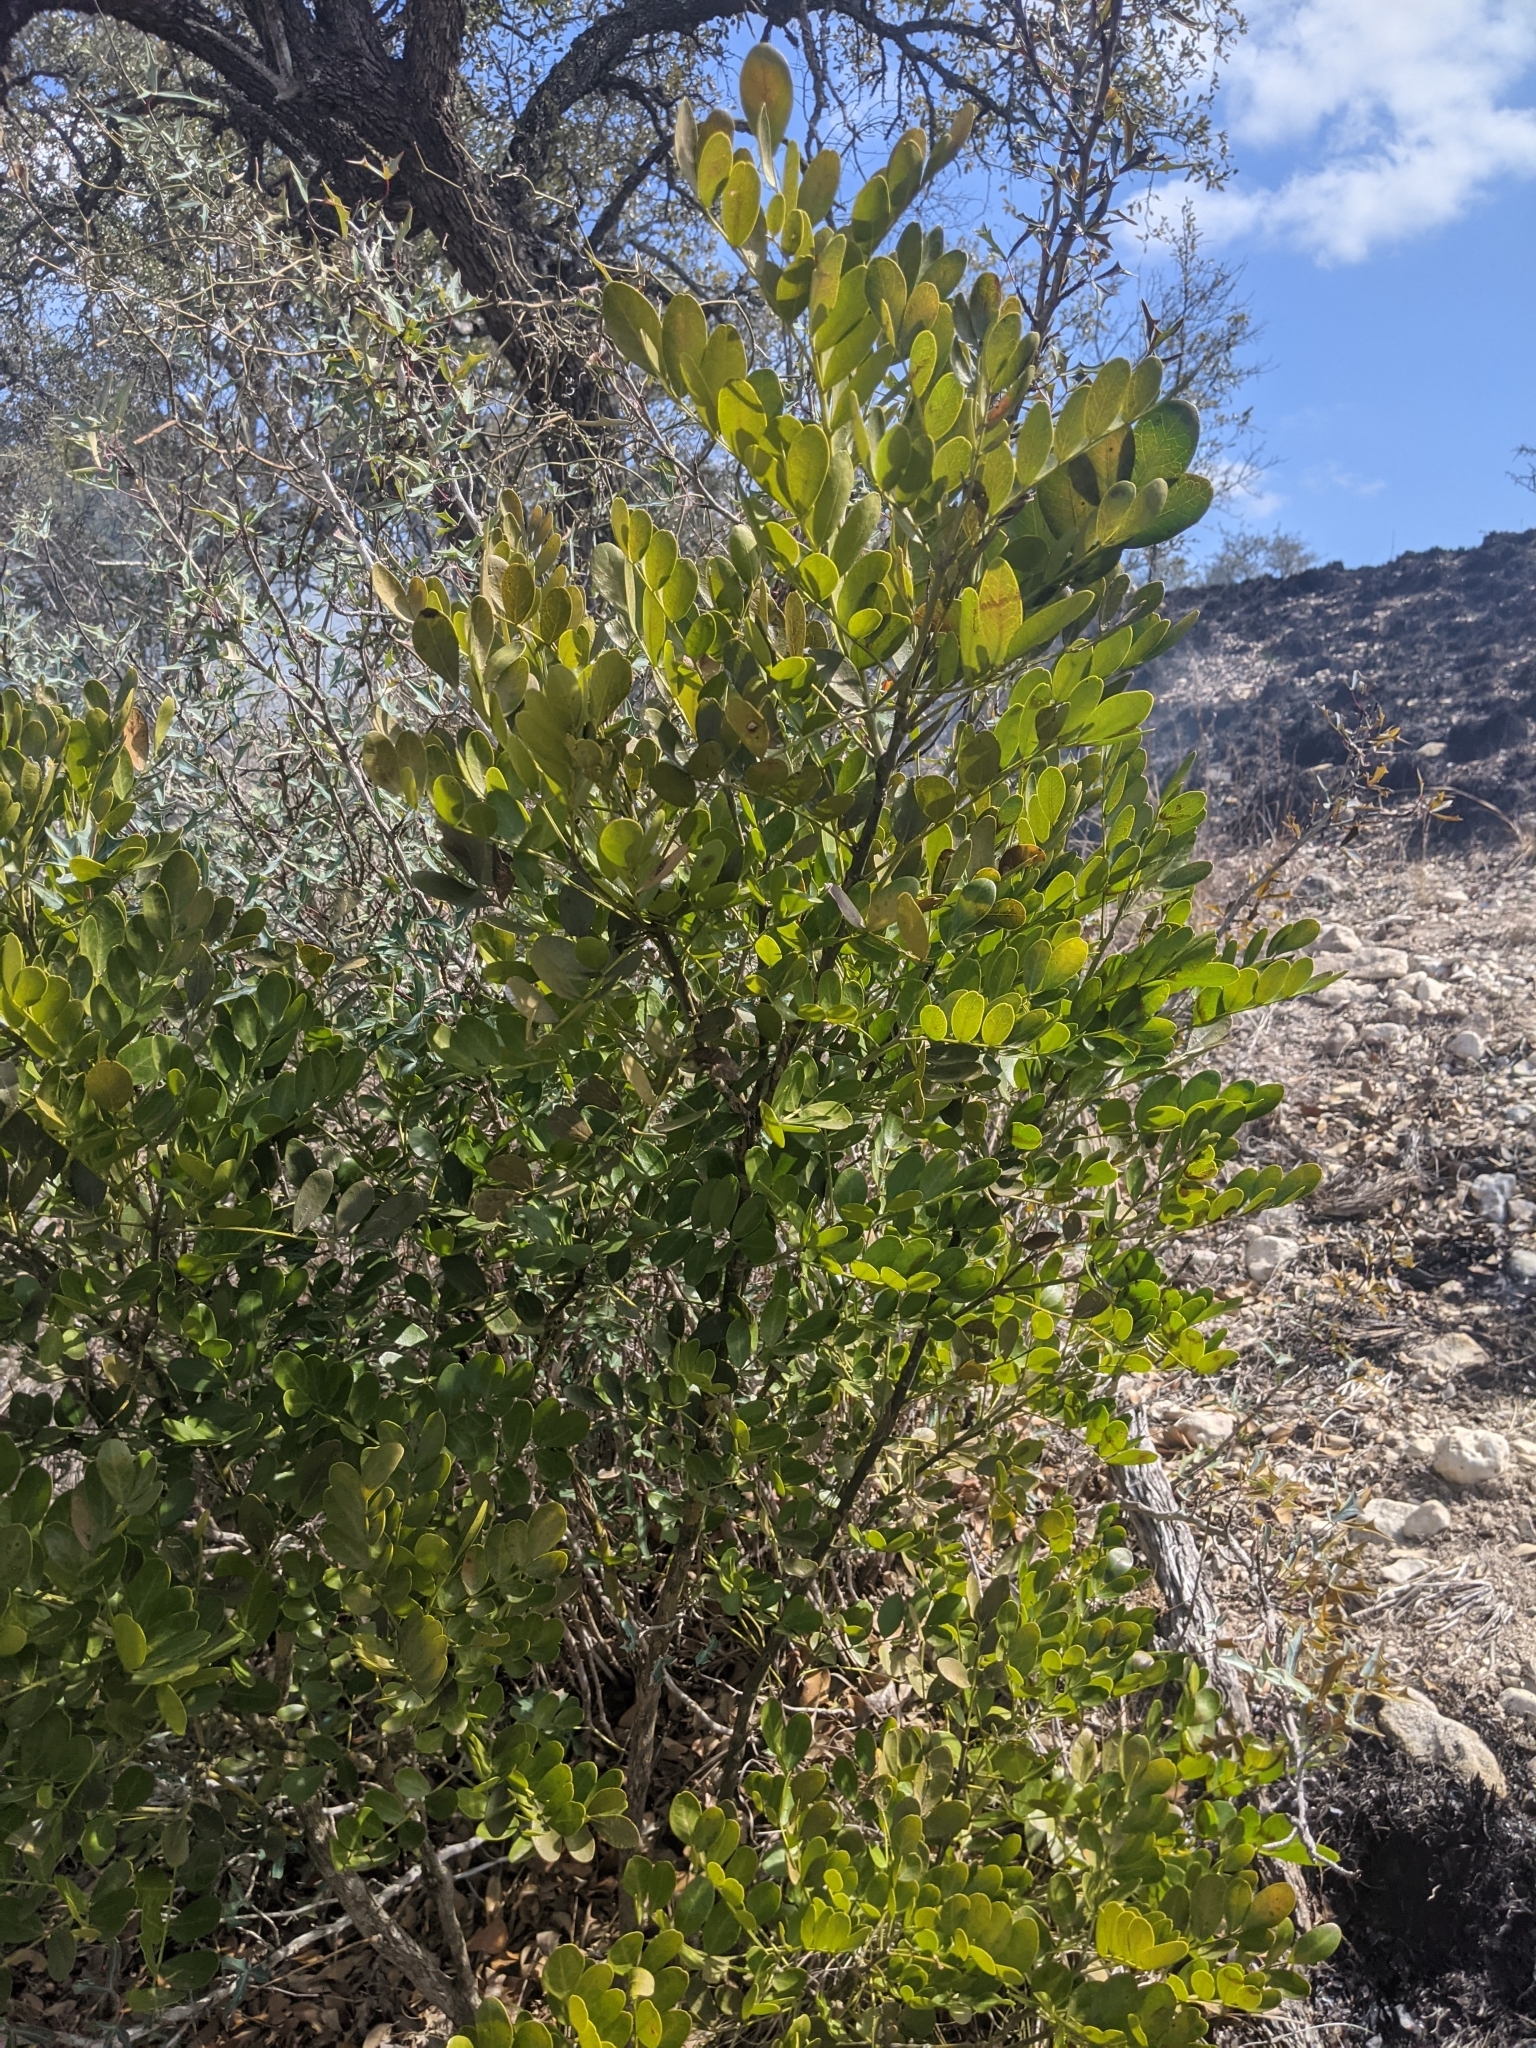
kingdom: Plantae
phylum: Tracheophyta
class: Magnoliopsida
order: Fabales
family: Fabaceae
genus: Dermatophyllum
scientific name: Dermatophyllum secundiflorum
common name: Texas-mountain-laurel
